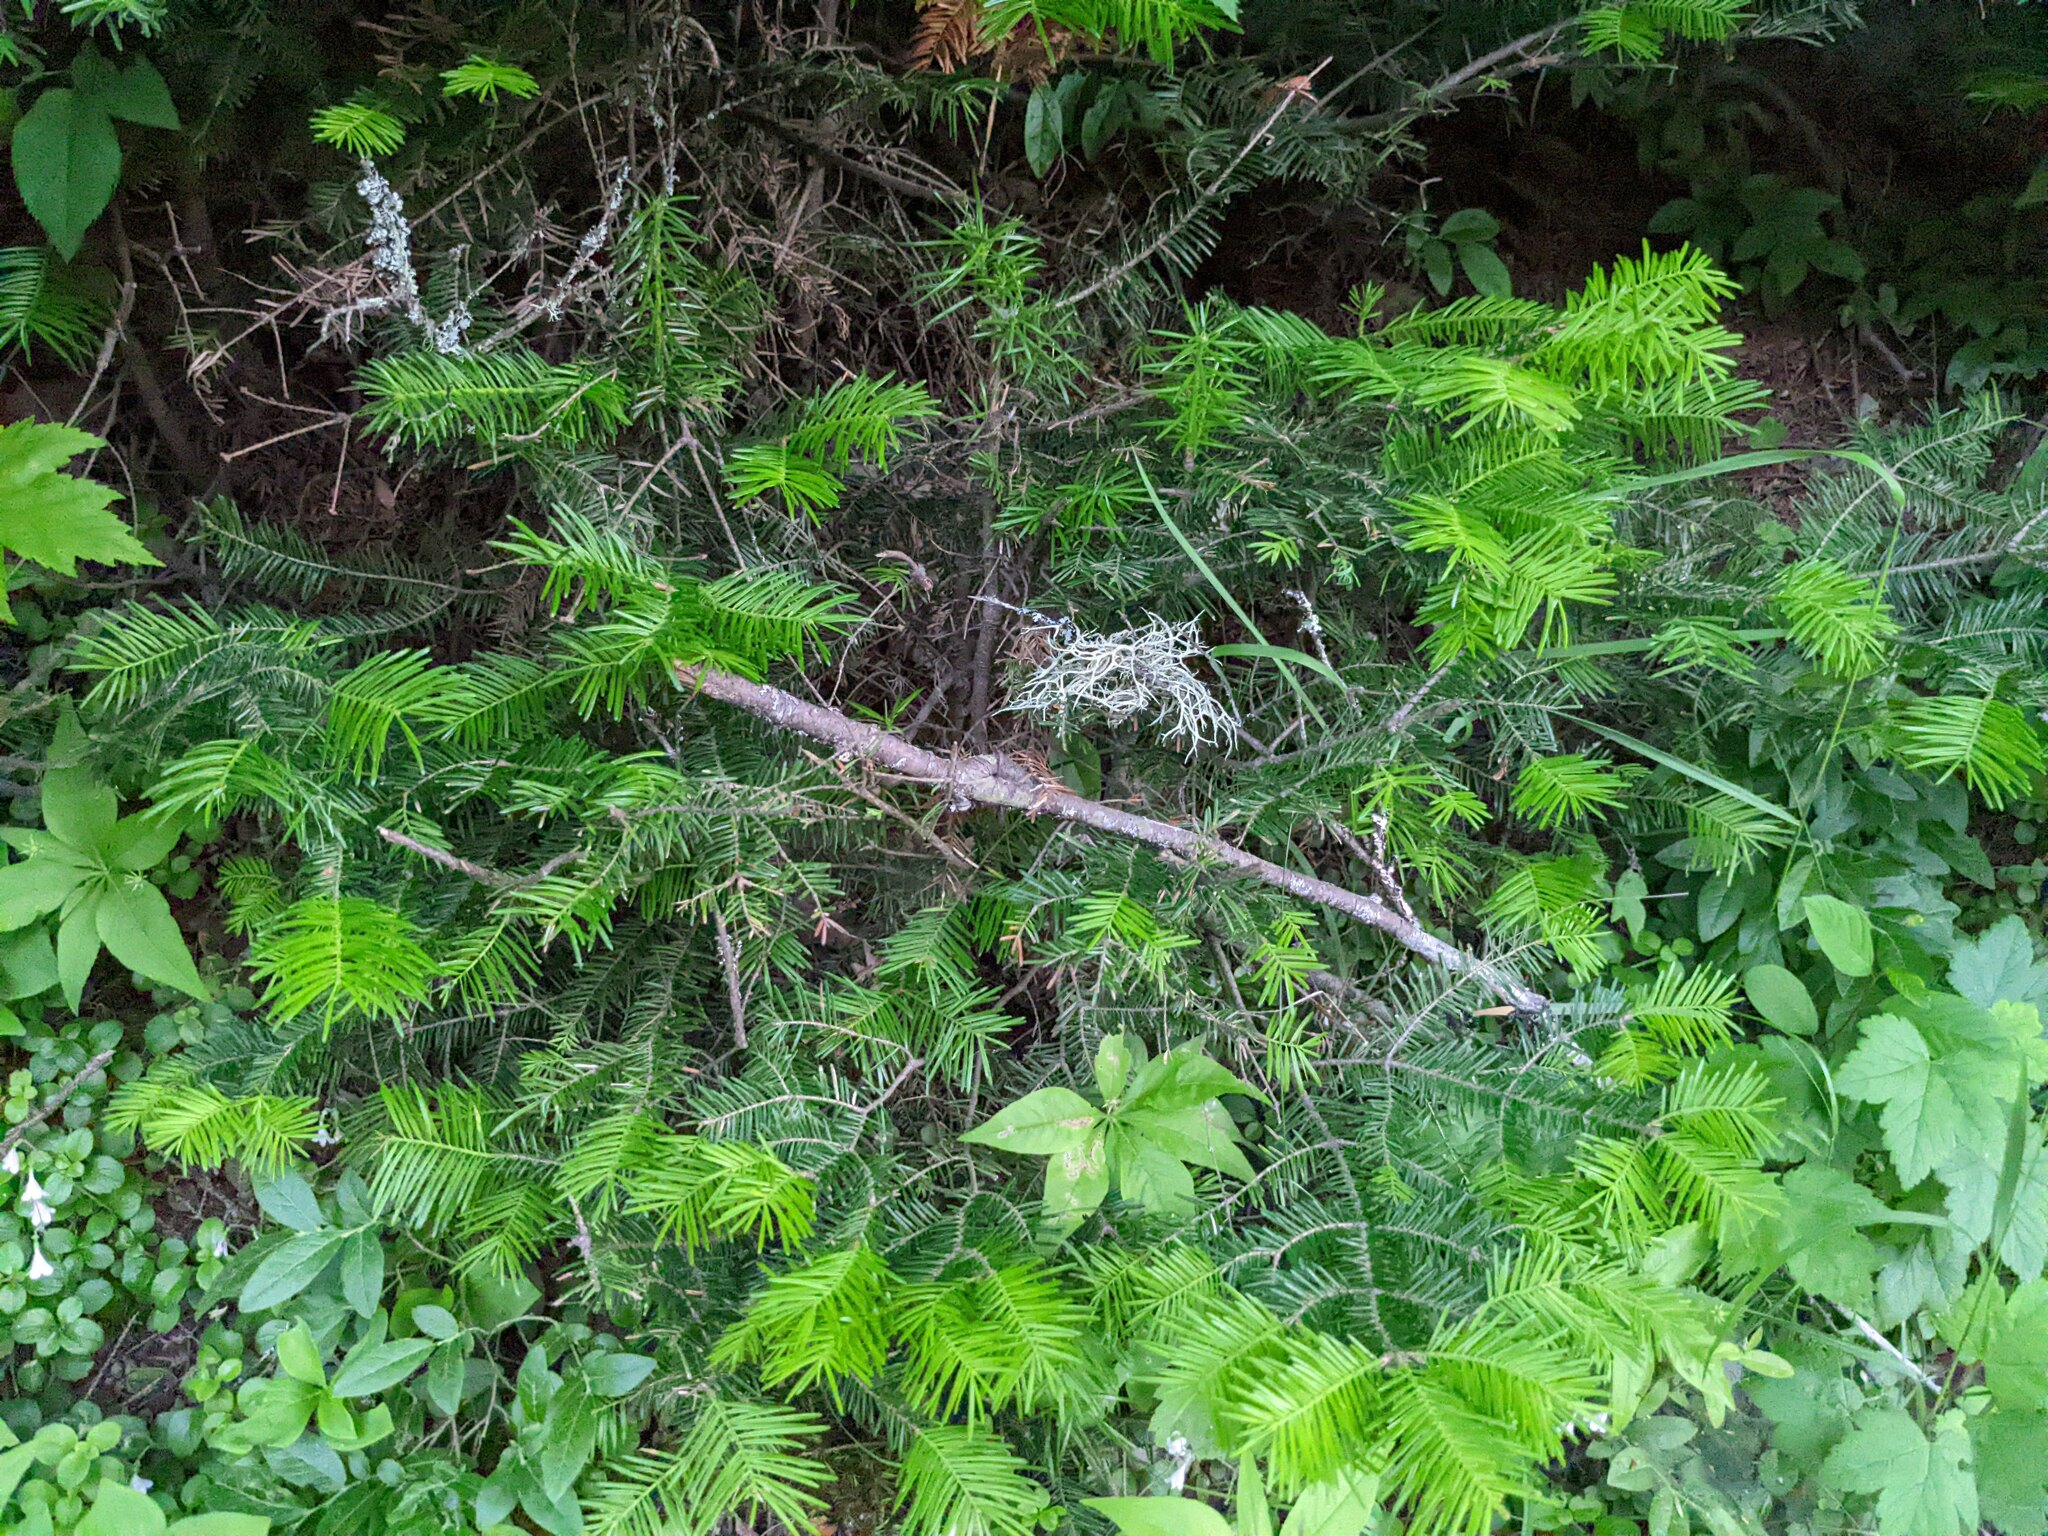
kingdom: Plantae
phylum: Tracheophyta
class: Pinopsida
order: Pinales
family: Pinaceae
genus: Abies
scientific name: Abies balsamea
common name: Balsam fir
